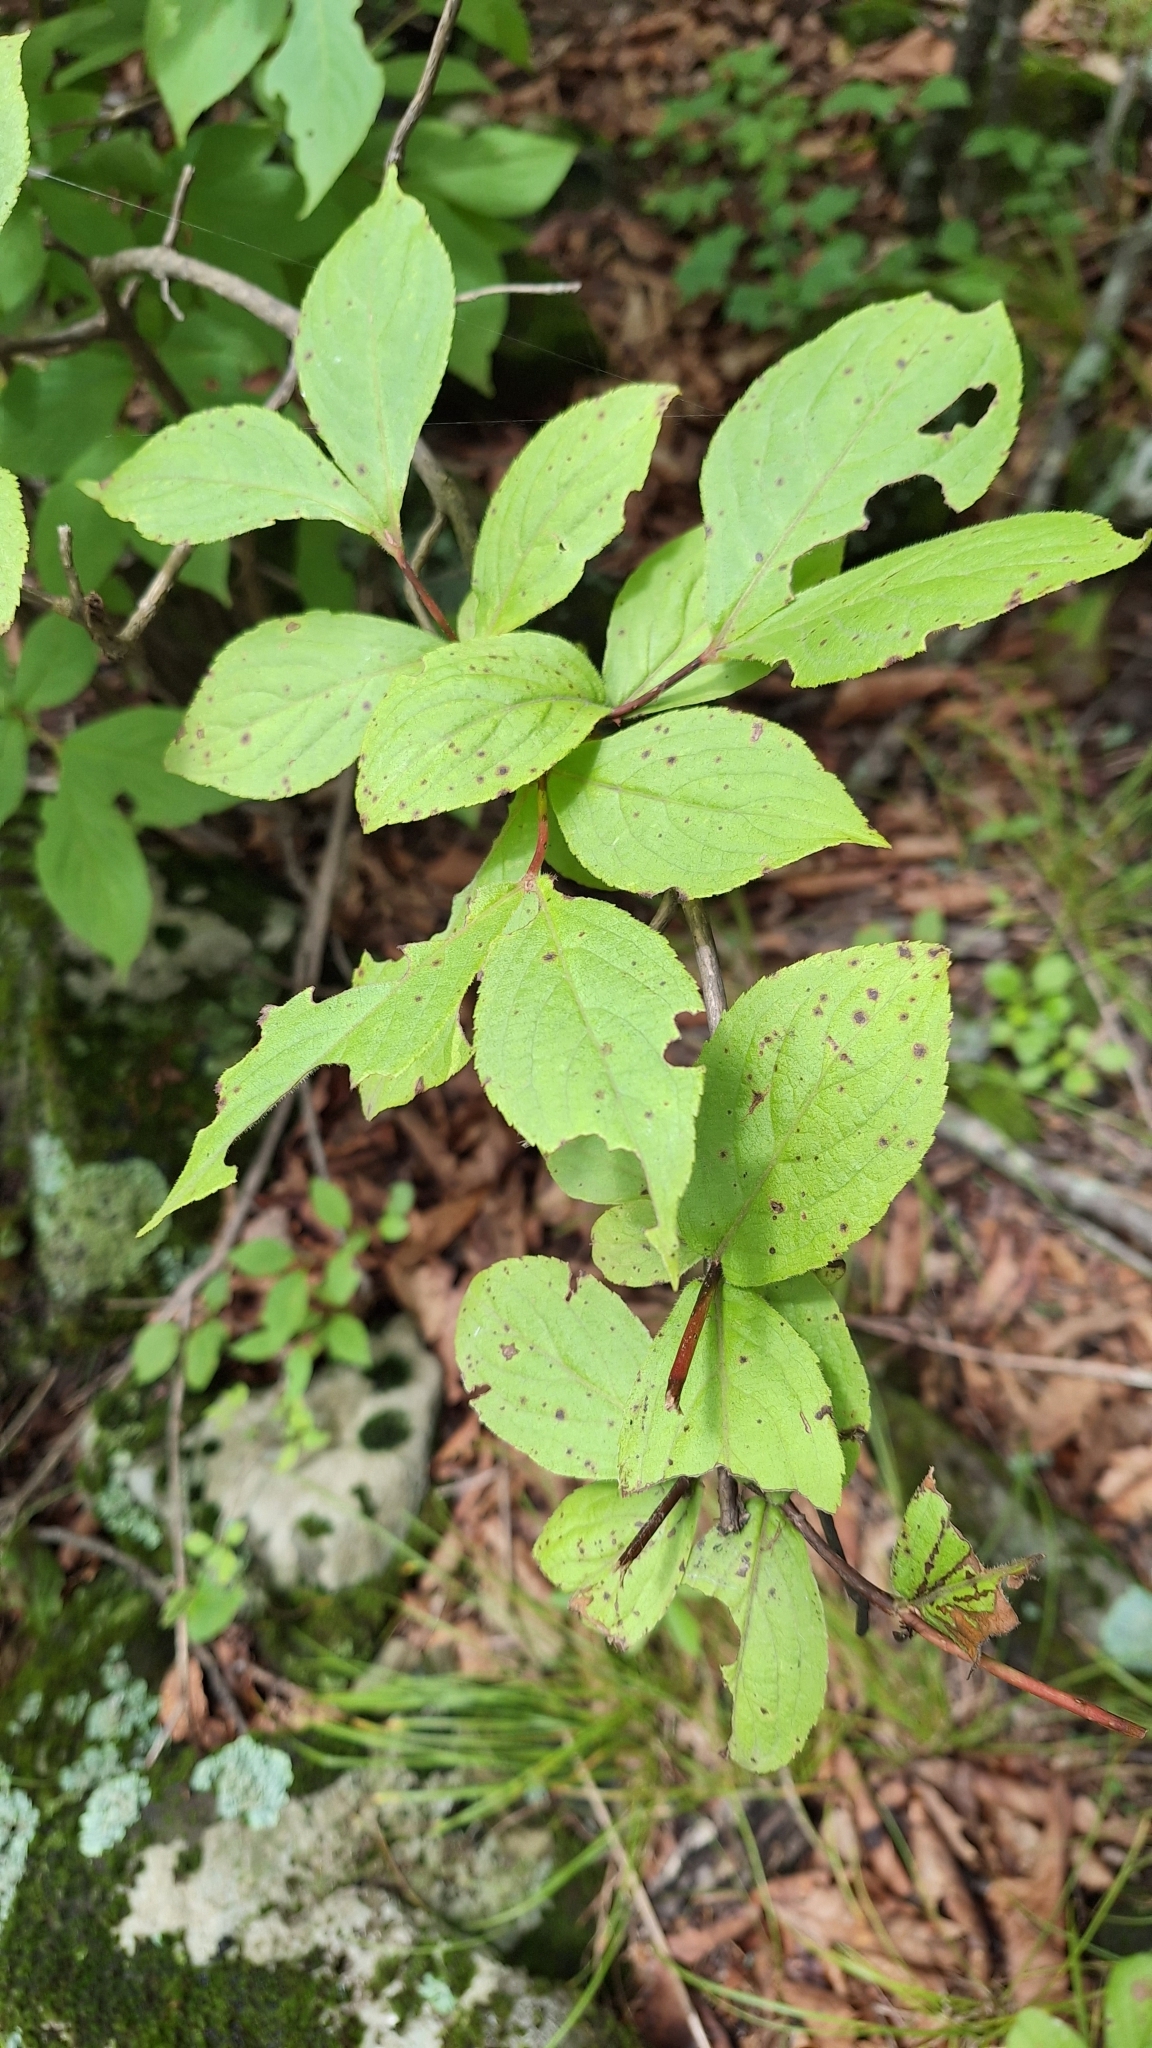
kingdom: Plantae
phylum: Tracheophyta
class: Magnoliopsida
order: Dipsacales
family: Caprifoliaceae
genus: Weigela
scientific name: Weigela florida
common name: Weigelia
